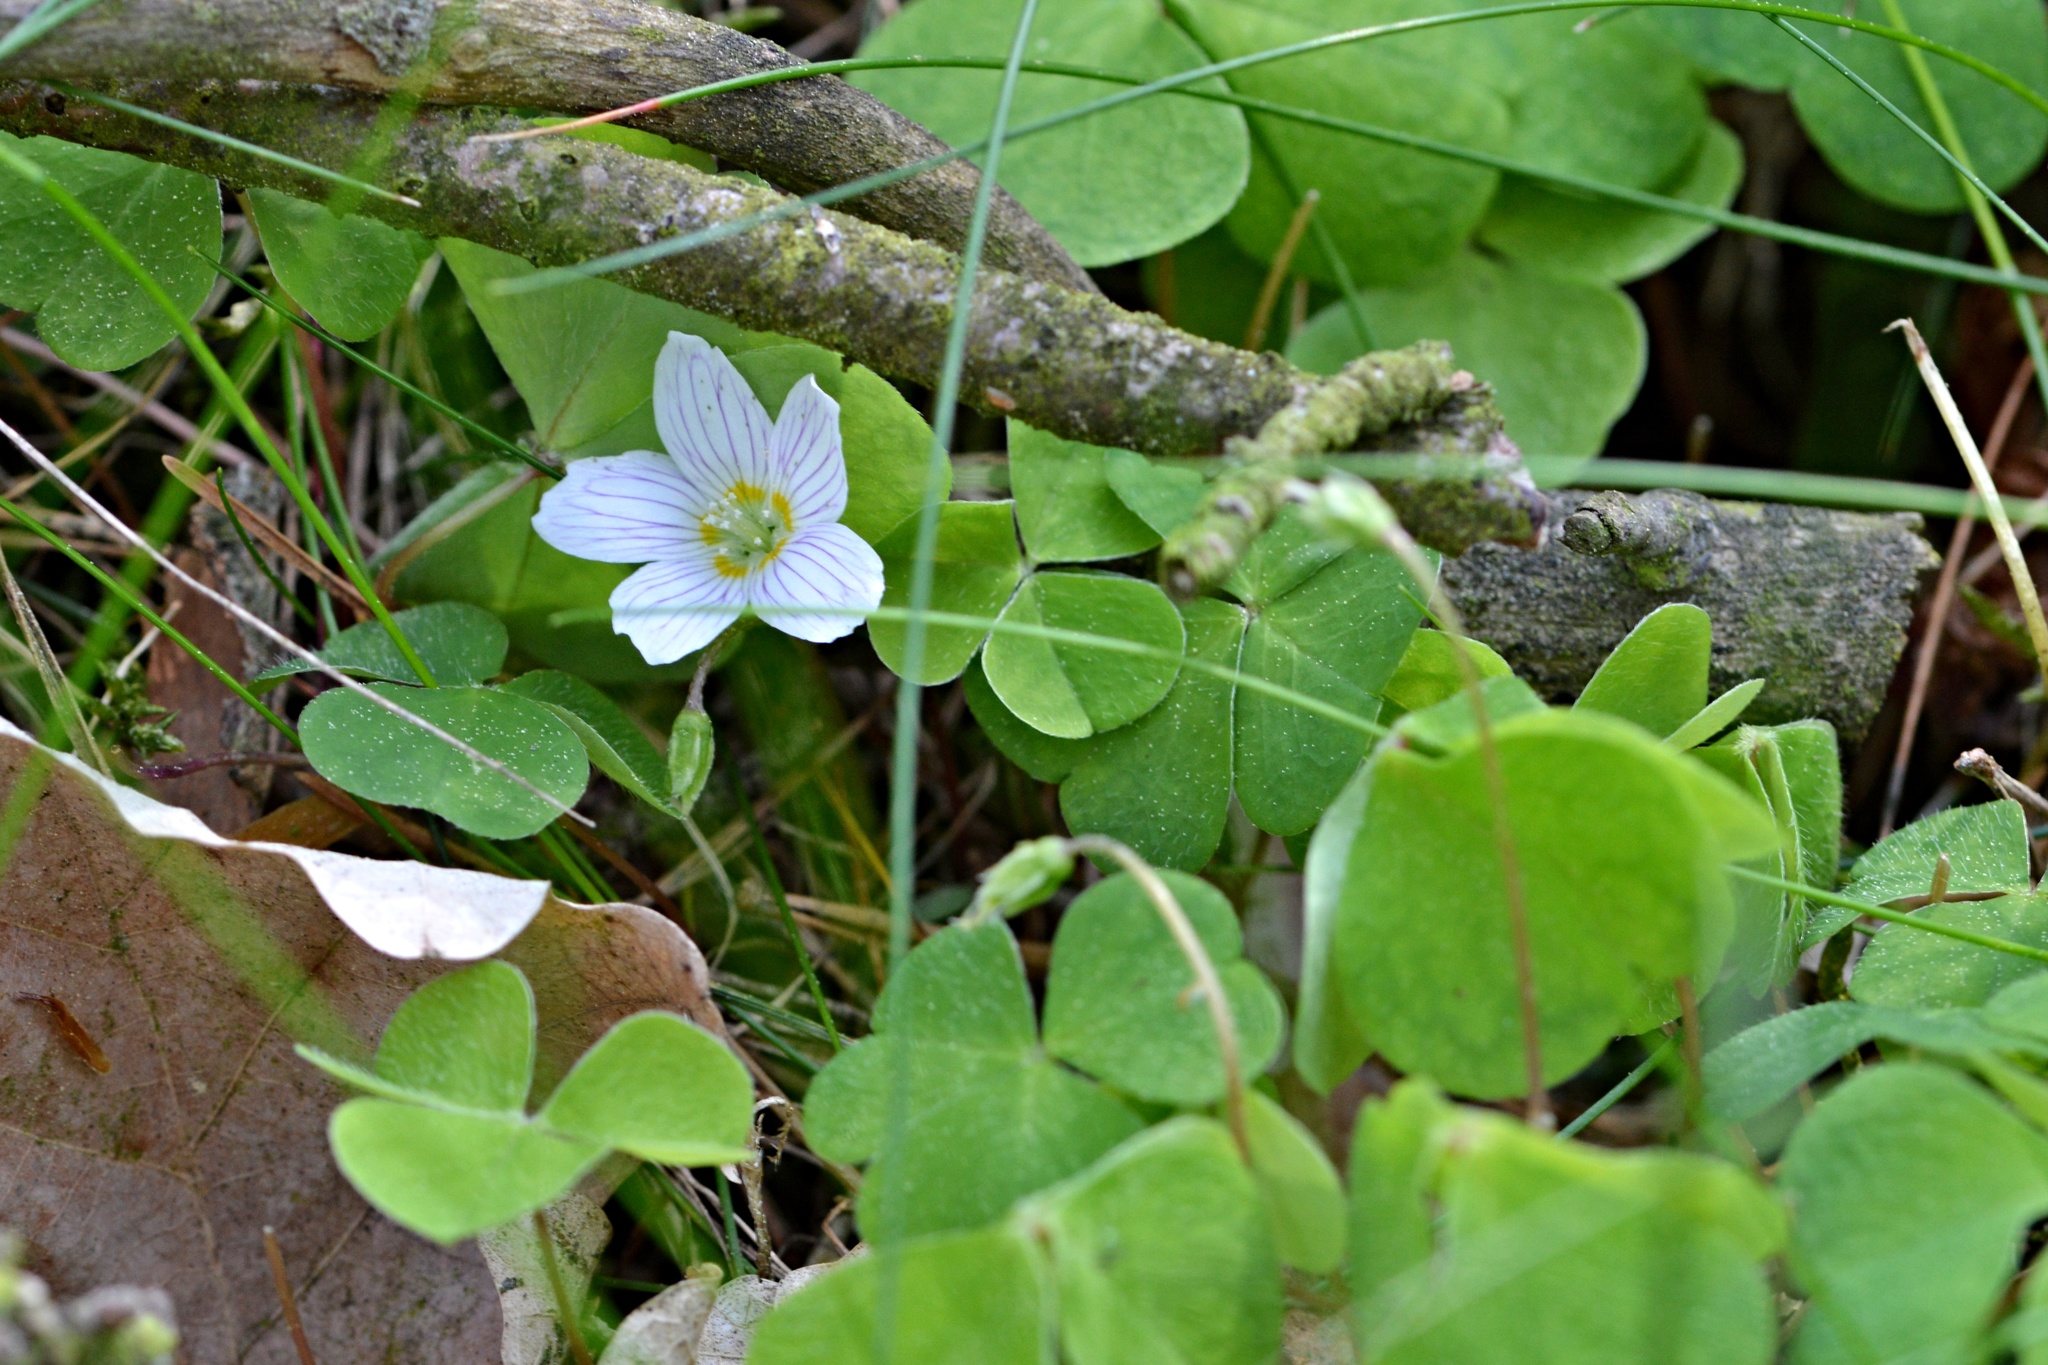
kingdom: Plantae
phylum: Tracheophyta
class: Magnoliopsida
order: Oxalidales
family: Oxalidaceae
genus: Oxalis
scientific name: Oxalis acetosella
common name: Wood-sorrel
